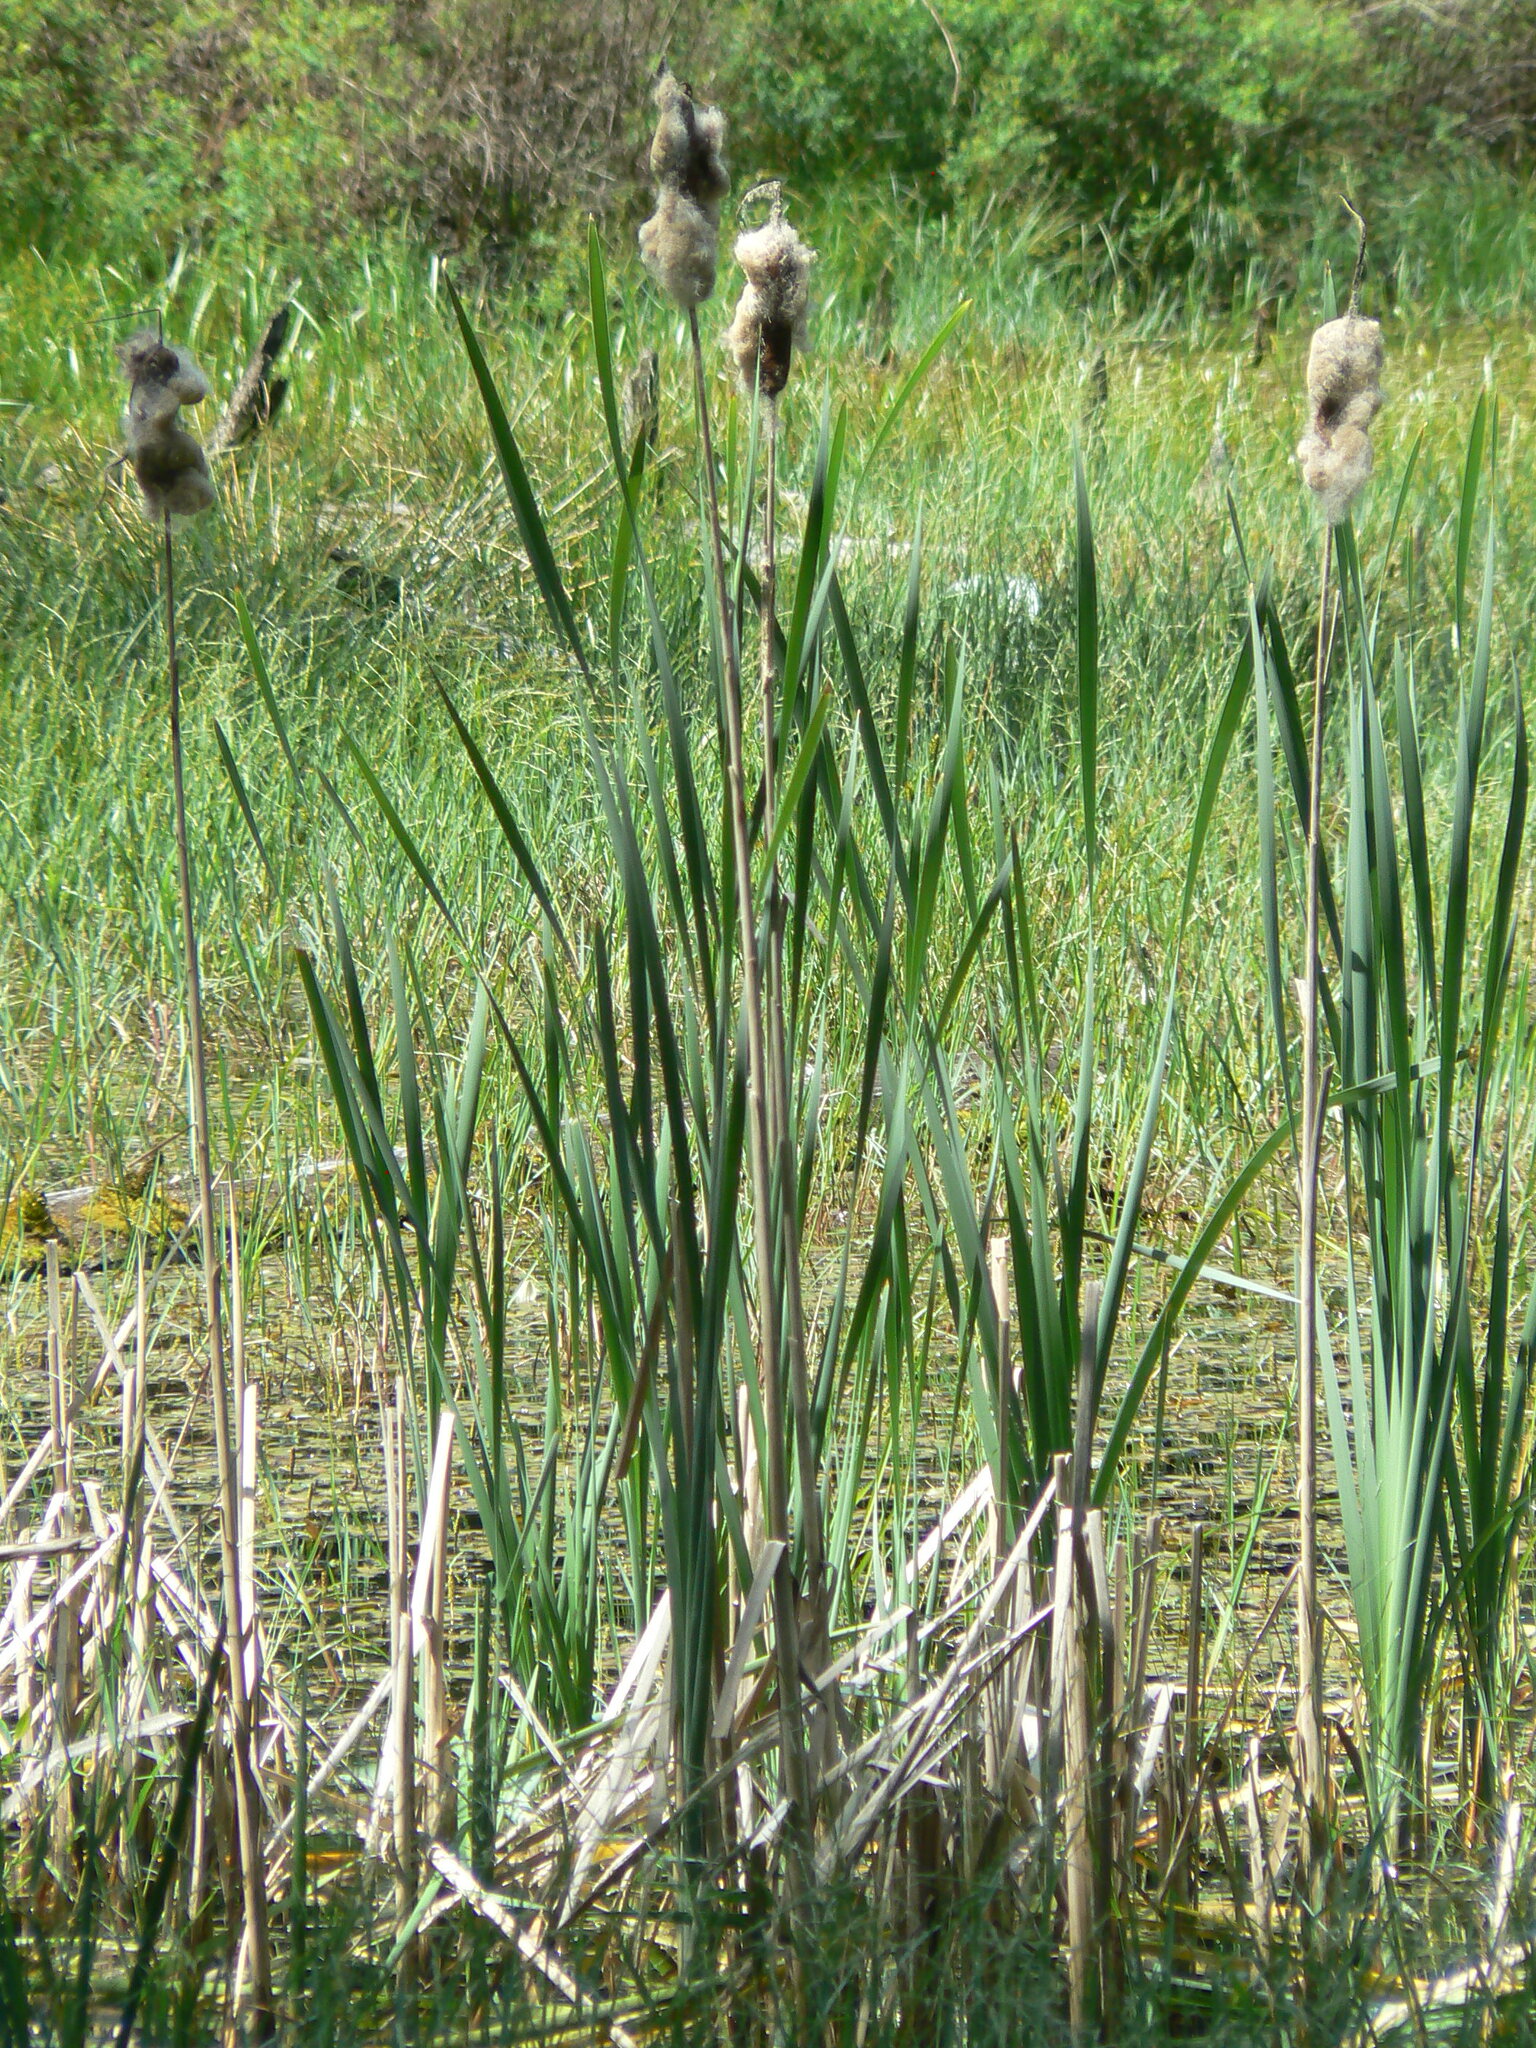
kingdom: Plantae
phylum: Tracheophyta
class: Liliopsida
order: Poales
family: Typhaceae
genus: Typha
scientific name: Typha latifolia
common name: Broadleaf cattail
